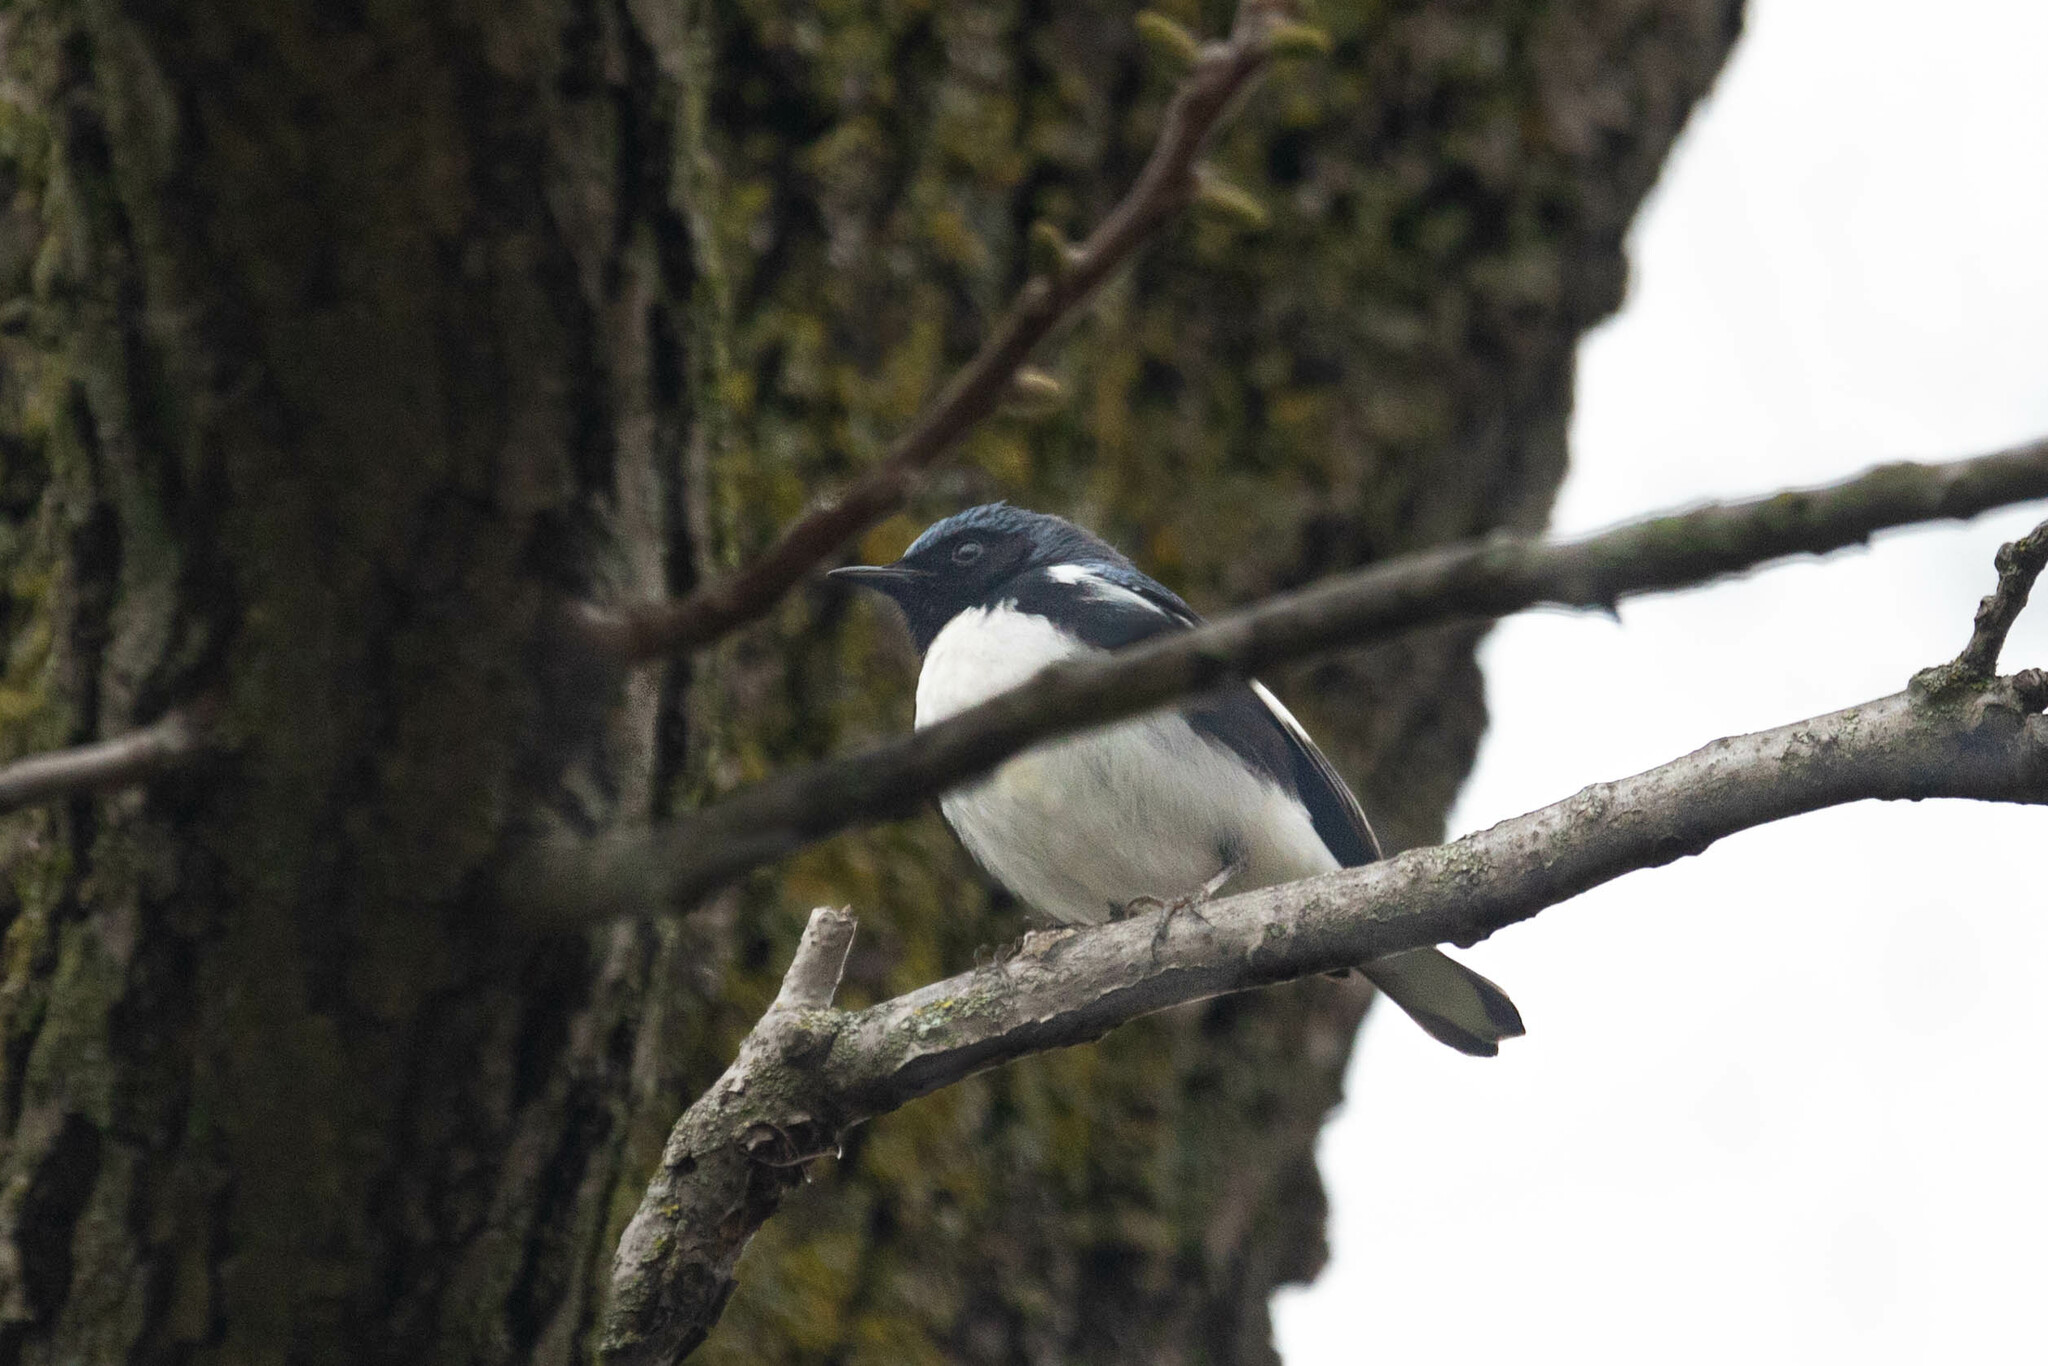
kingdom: Animalia
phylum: Chordata
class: Aves
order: Passeriformes
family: Parulidae
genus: Setophaga
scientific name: Setophaga caerulescens
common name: Black-throated blue warbler
